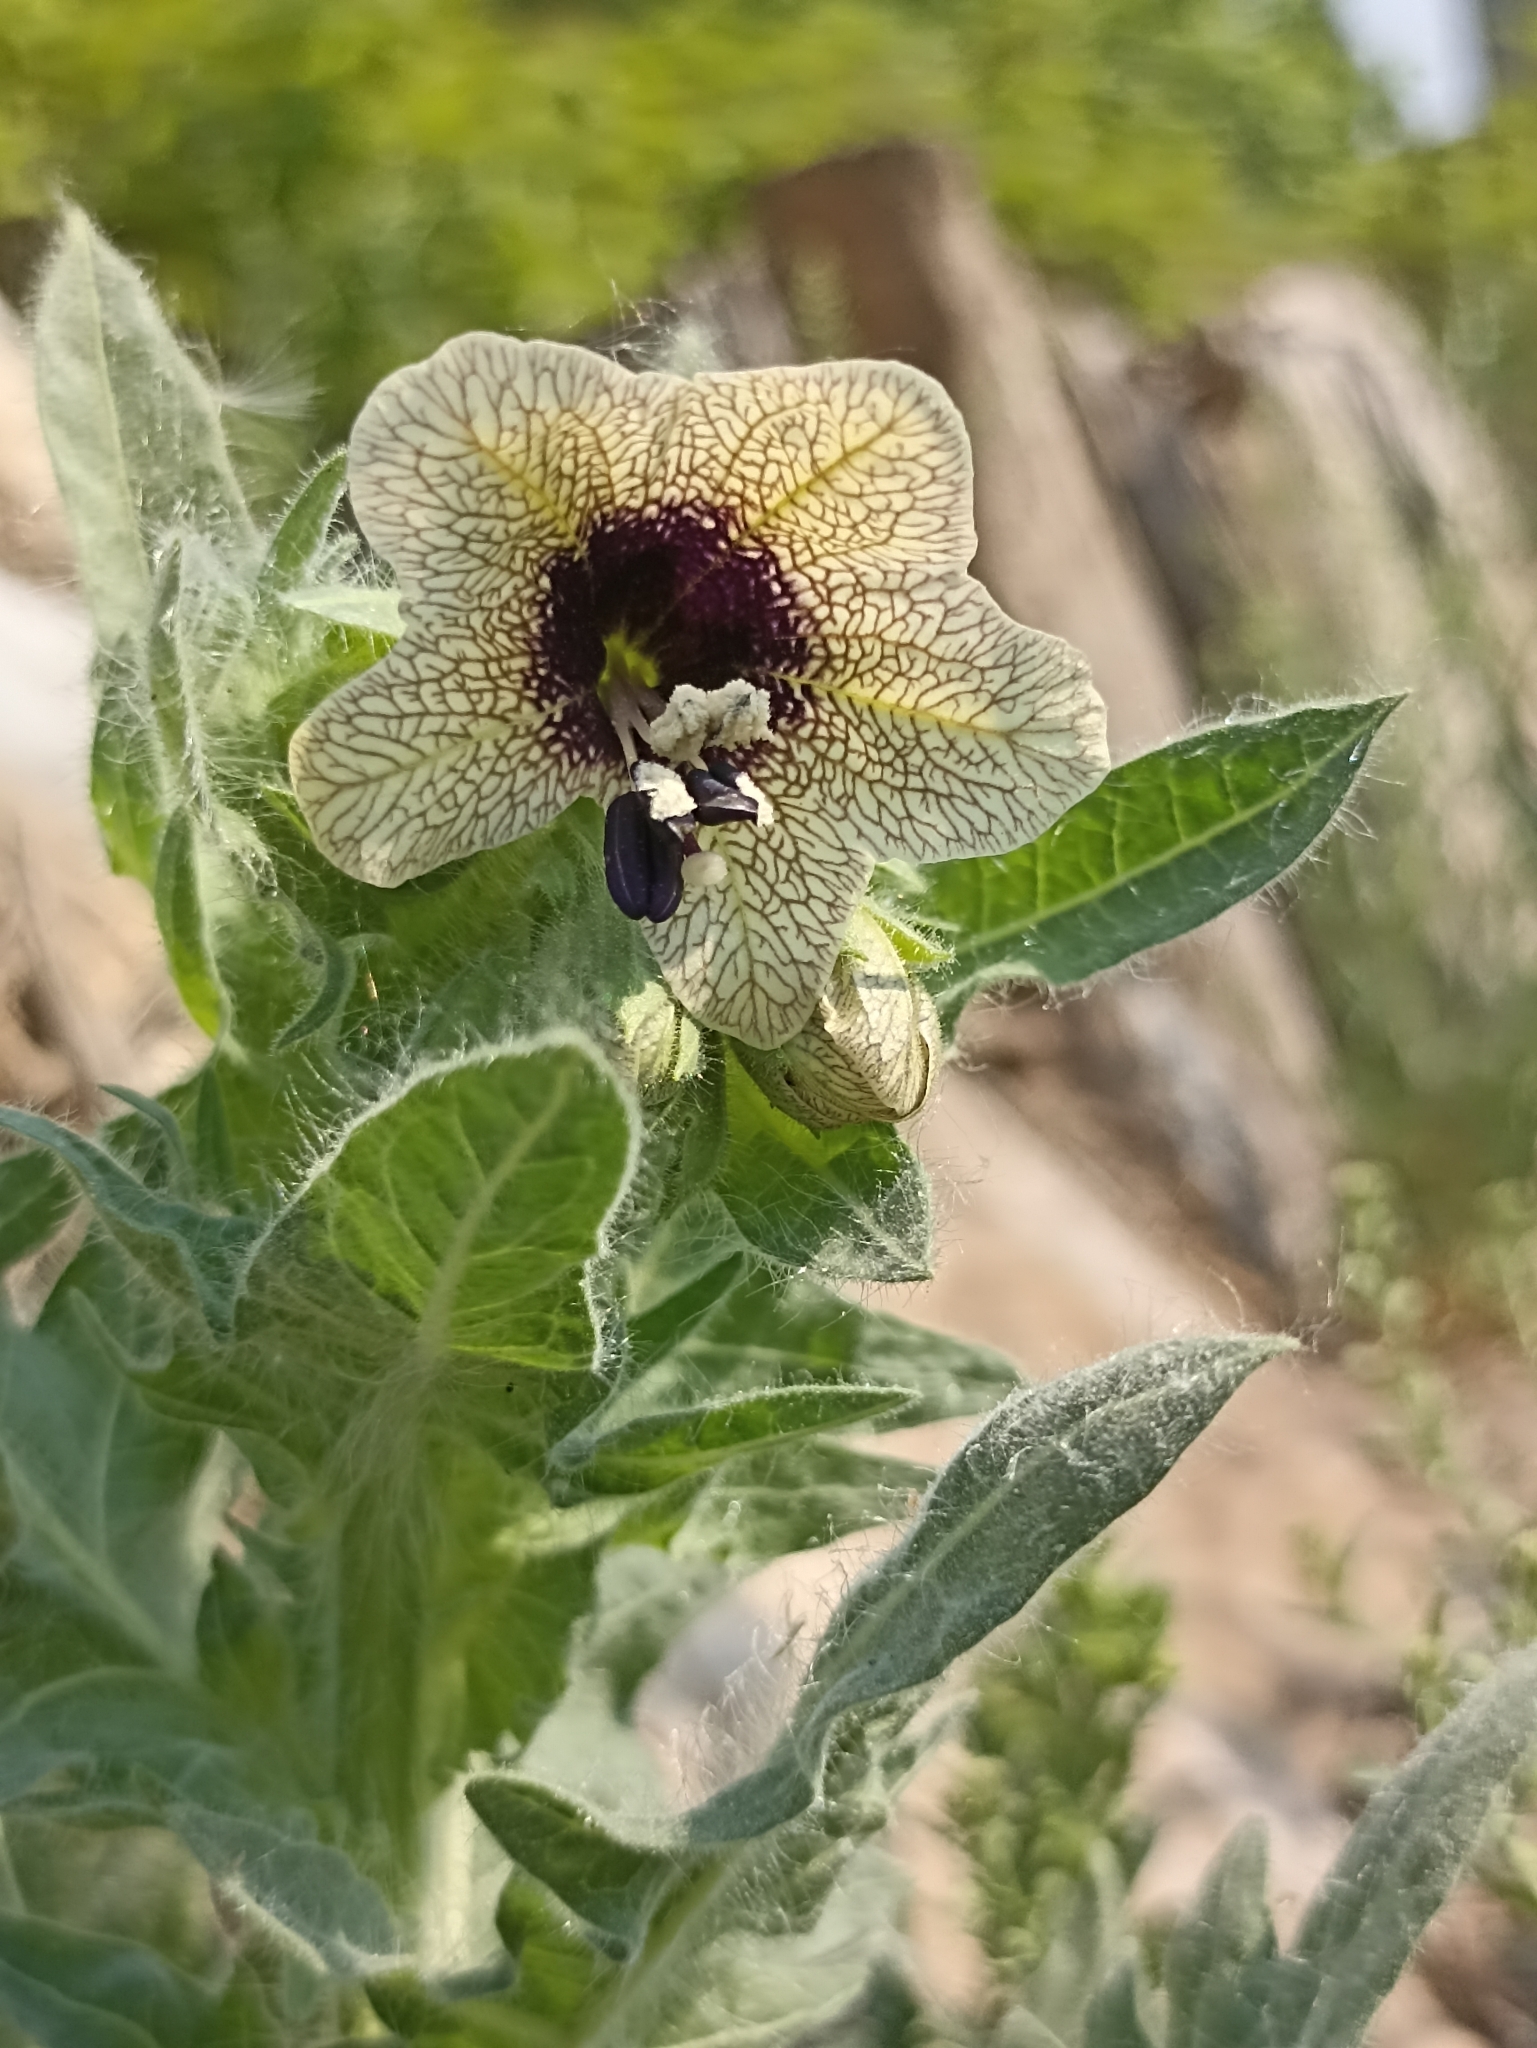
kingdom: Plantae
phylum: Tracheophyta
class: Magnoliopsida
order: Solanales
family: Solanaceae
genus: Hyoscyamus
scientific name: Hyoscyamus niger
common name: Henbane
